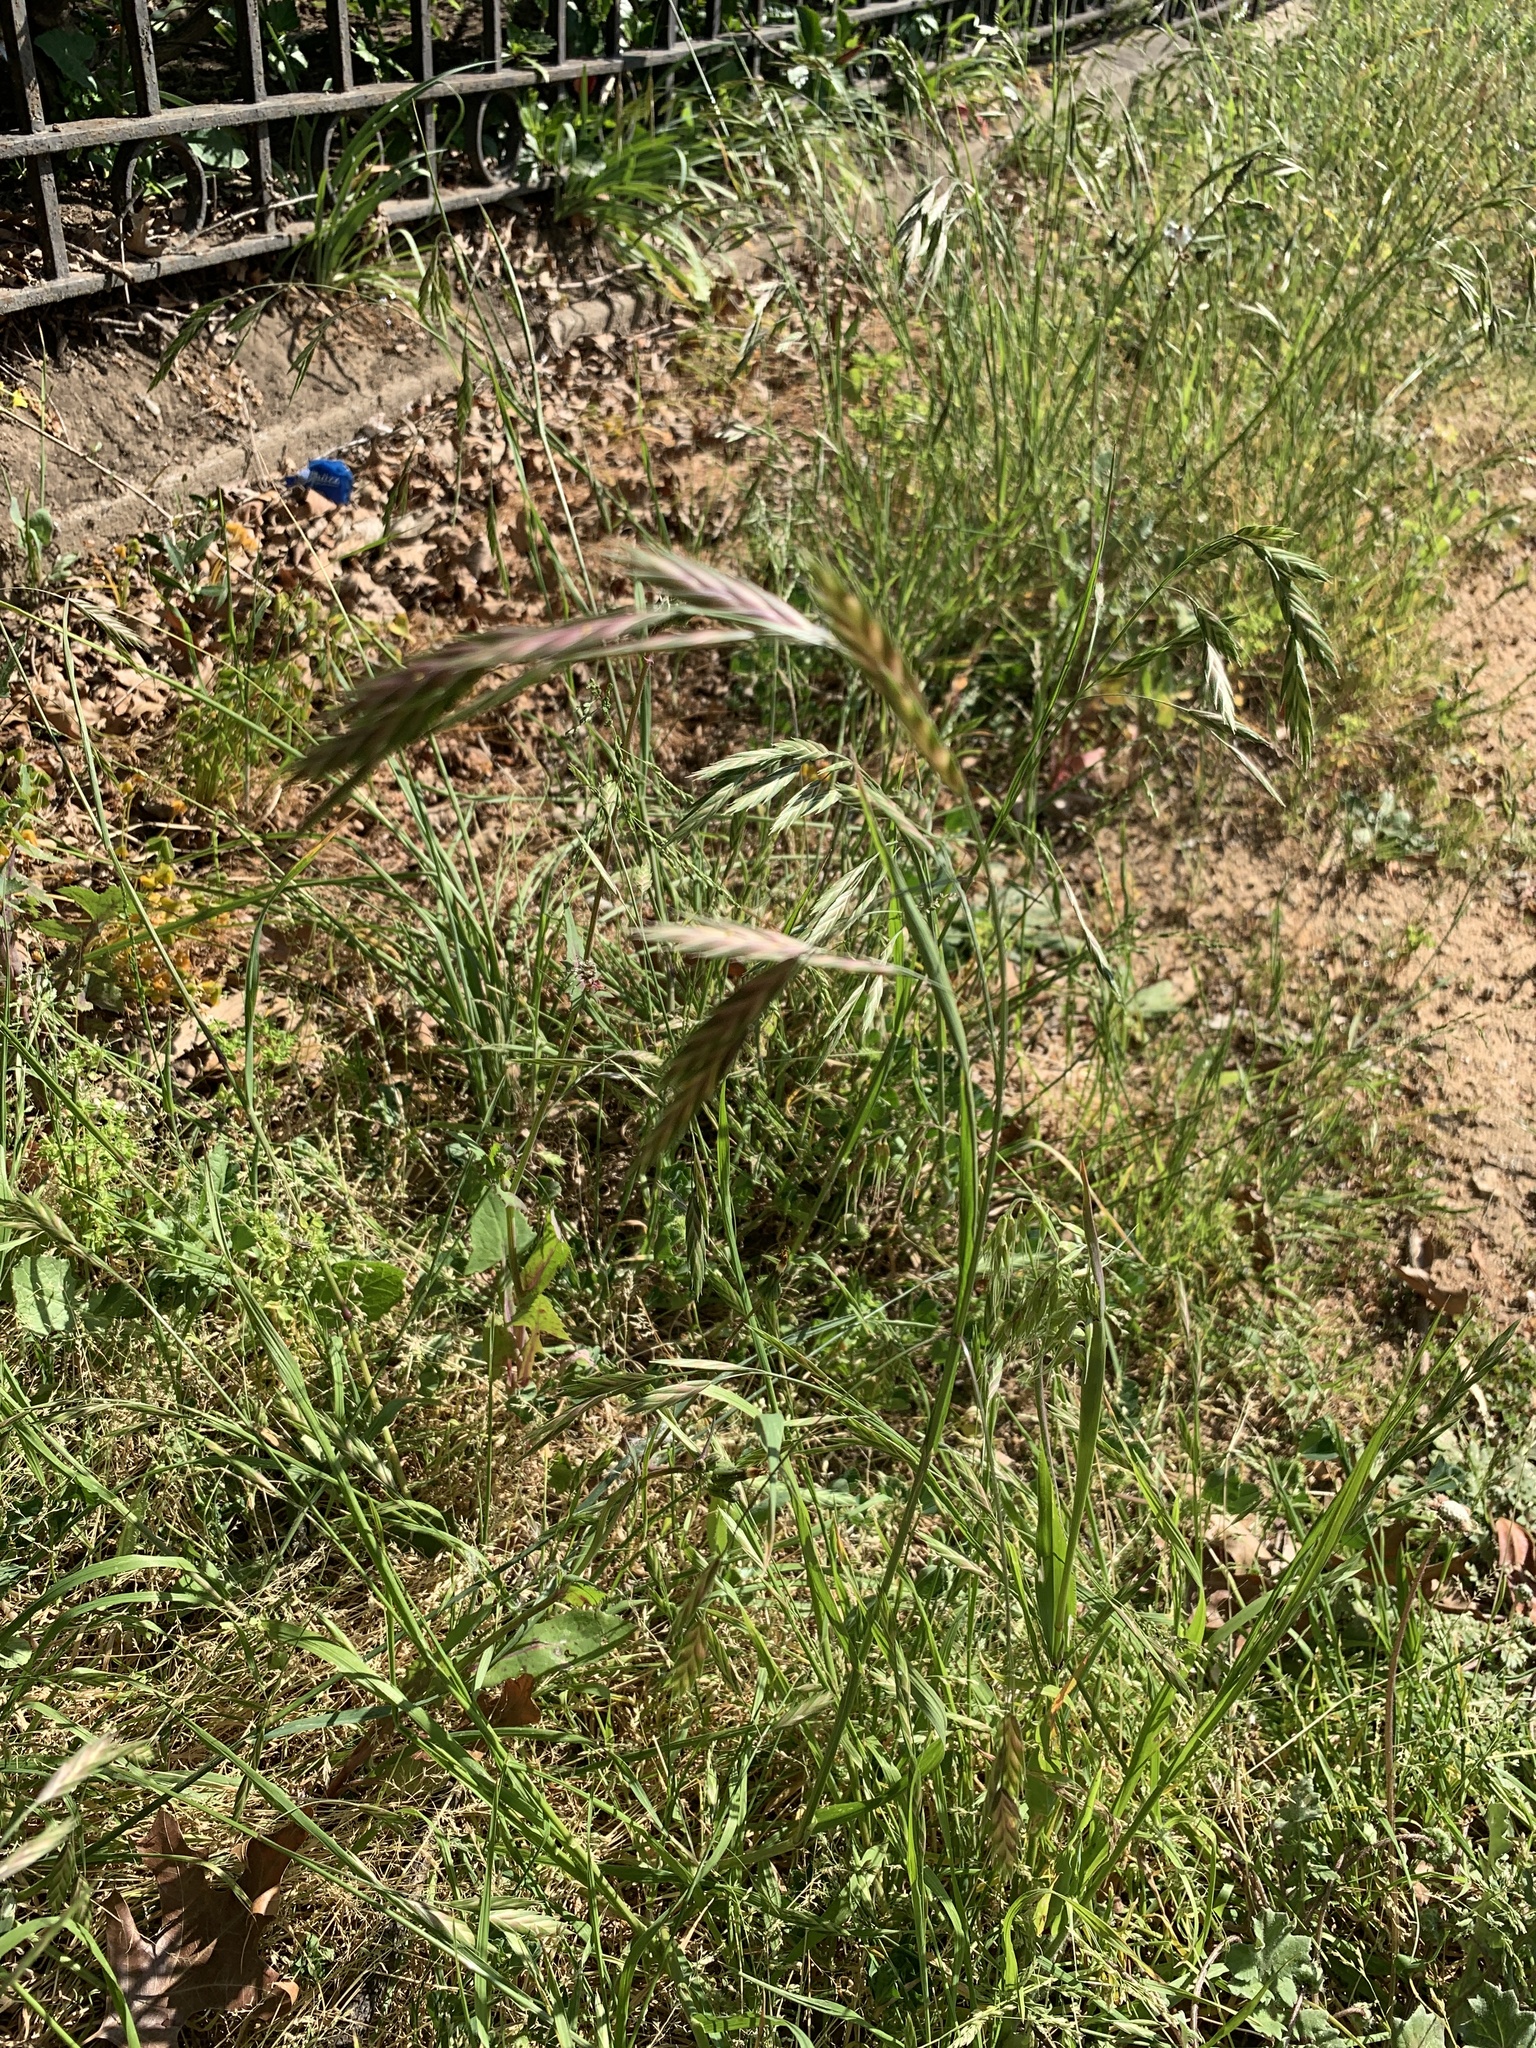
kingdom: Plantae
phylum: Tracheophyta
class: Liliopsida
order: Poales
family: Poaceae
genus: Bromus
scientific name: Bromus catharticus
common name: Rescuegrass
